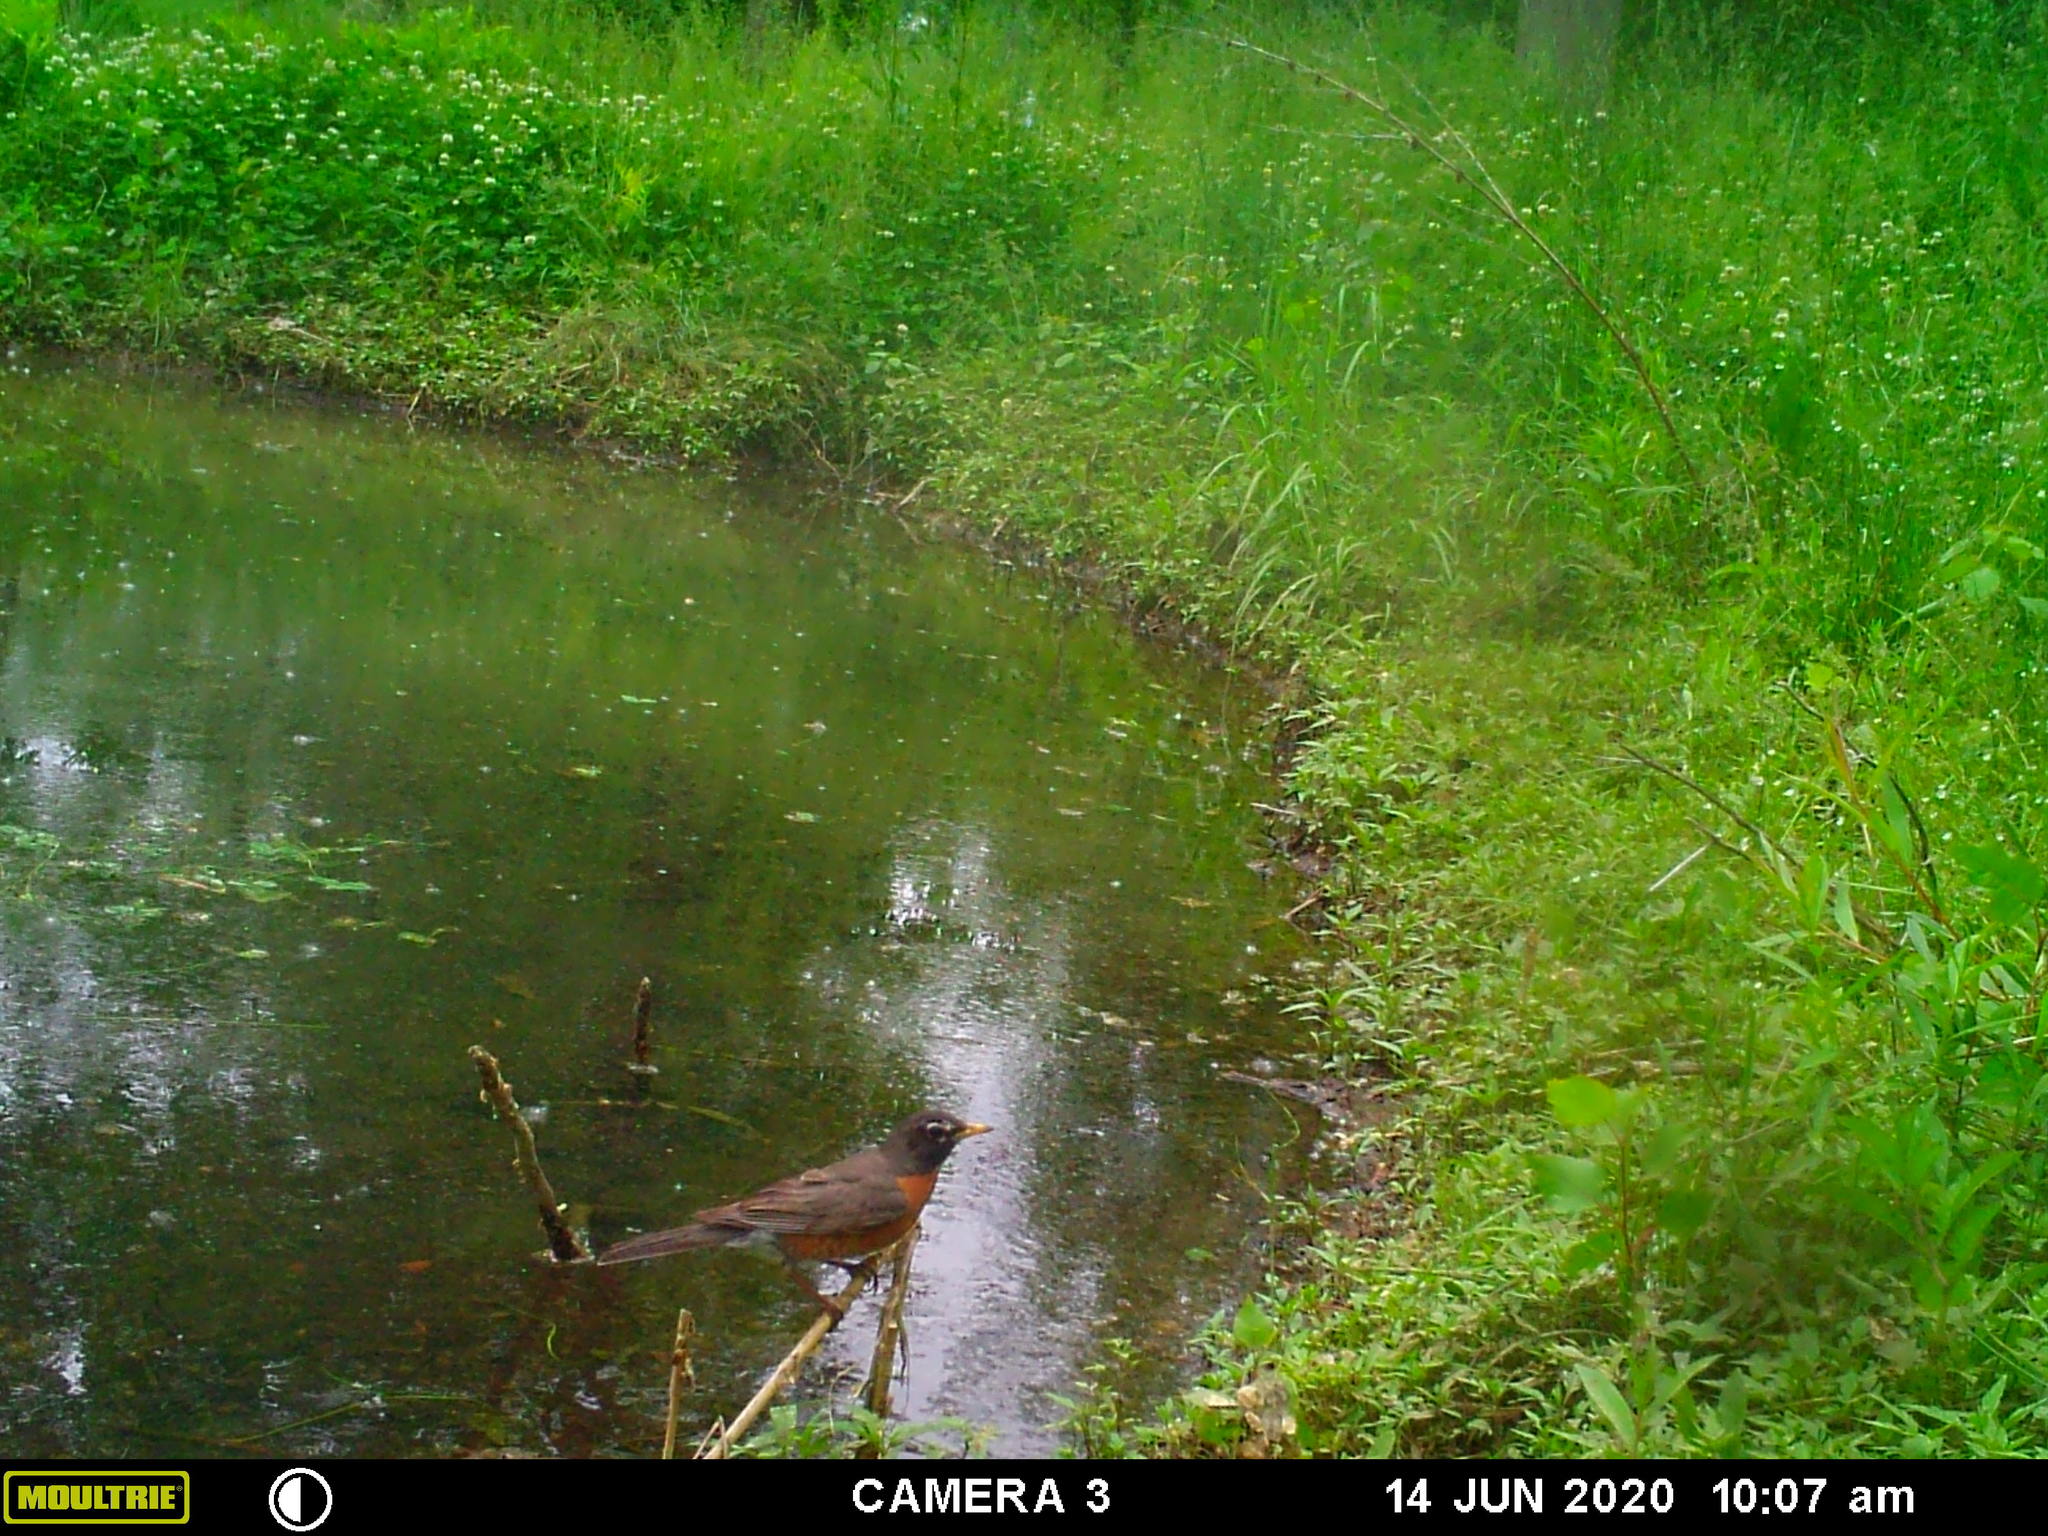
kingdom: Animalia
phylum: Chordata
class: Aves
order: Passeriformes
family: Turdidae
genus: Turdus
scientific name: Turdus migratorius
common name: American robin
